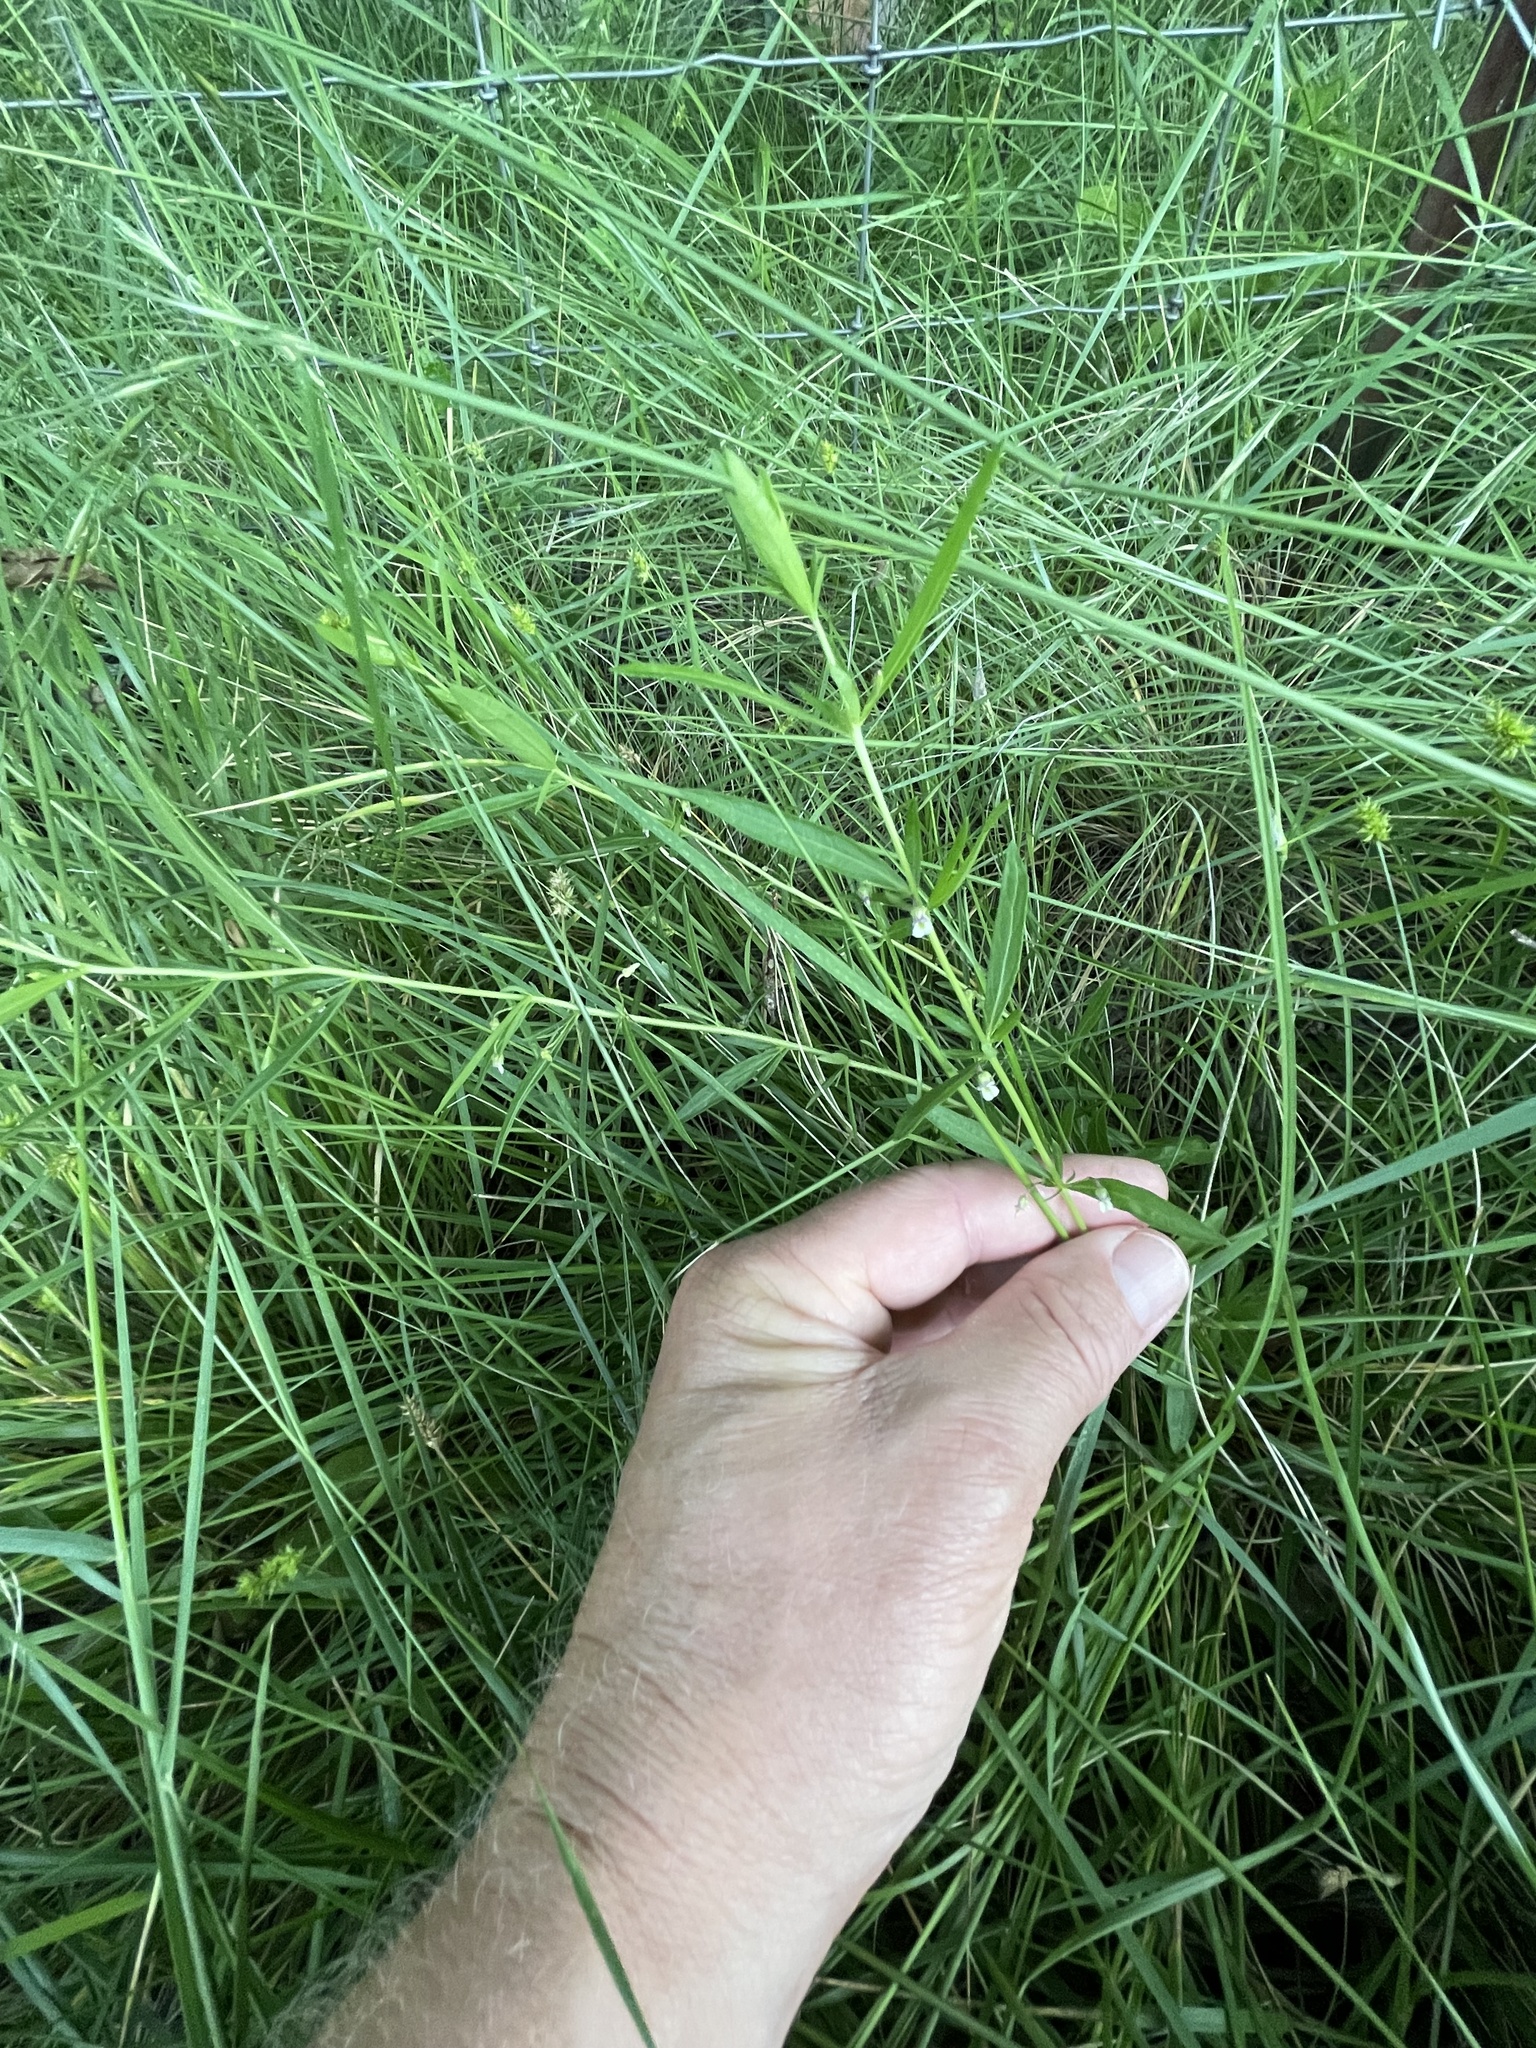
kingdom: Plantae
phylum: Tracheophyta
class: Magnoliopsida
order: Malpighiales
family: Violaceae
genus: Pombalia
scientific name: Pombalia verticillata
